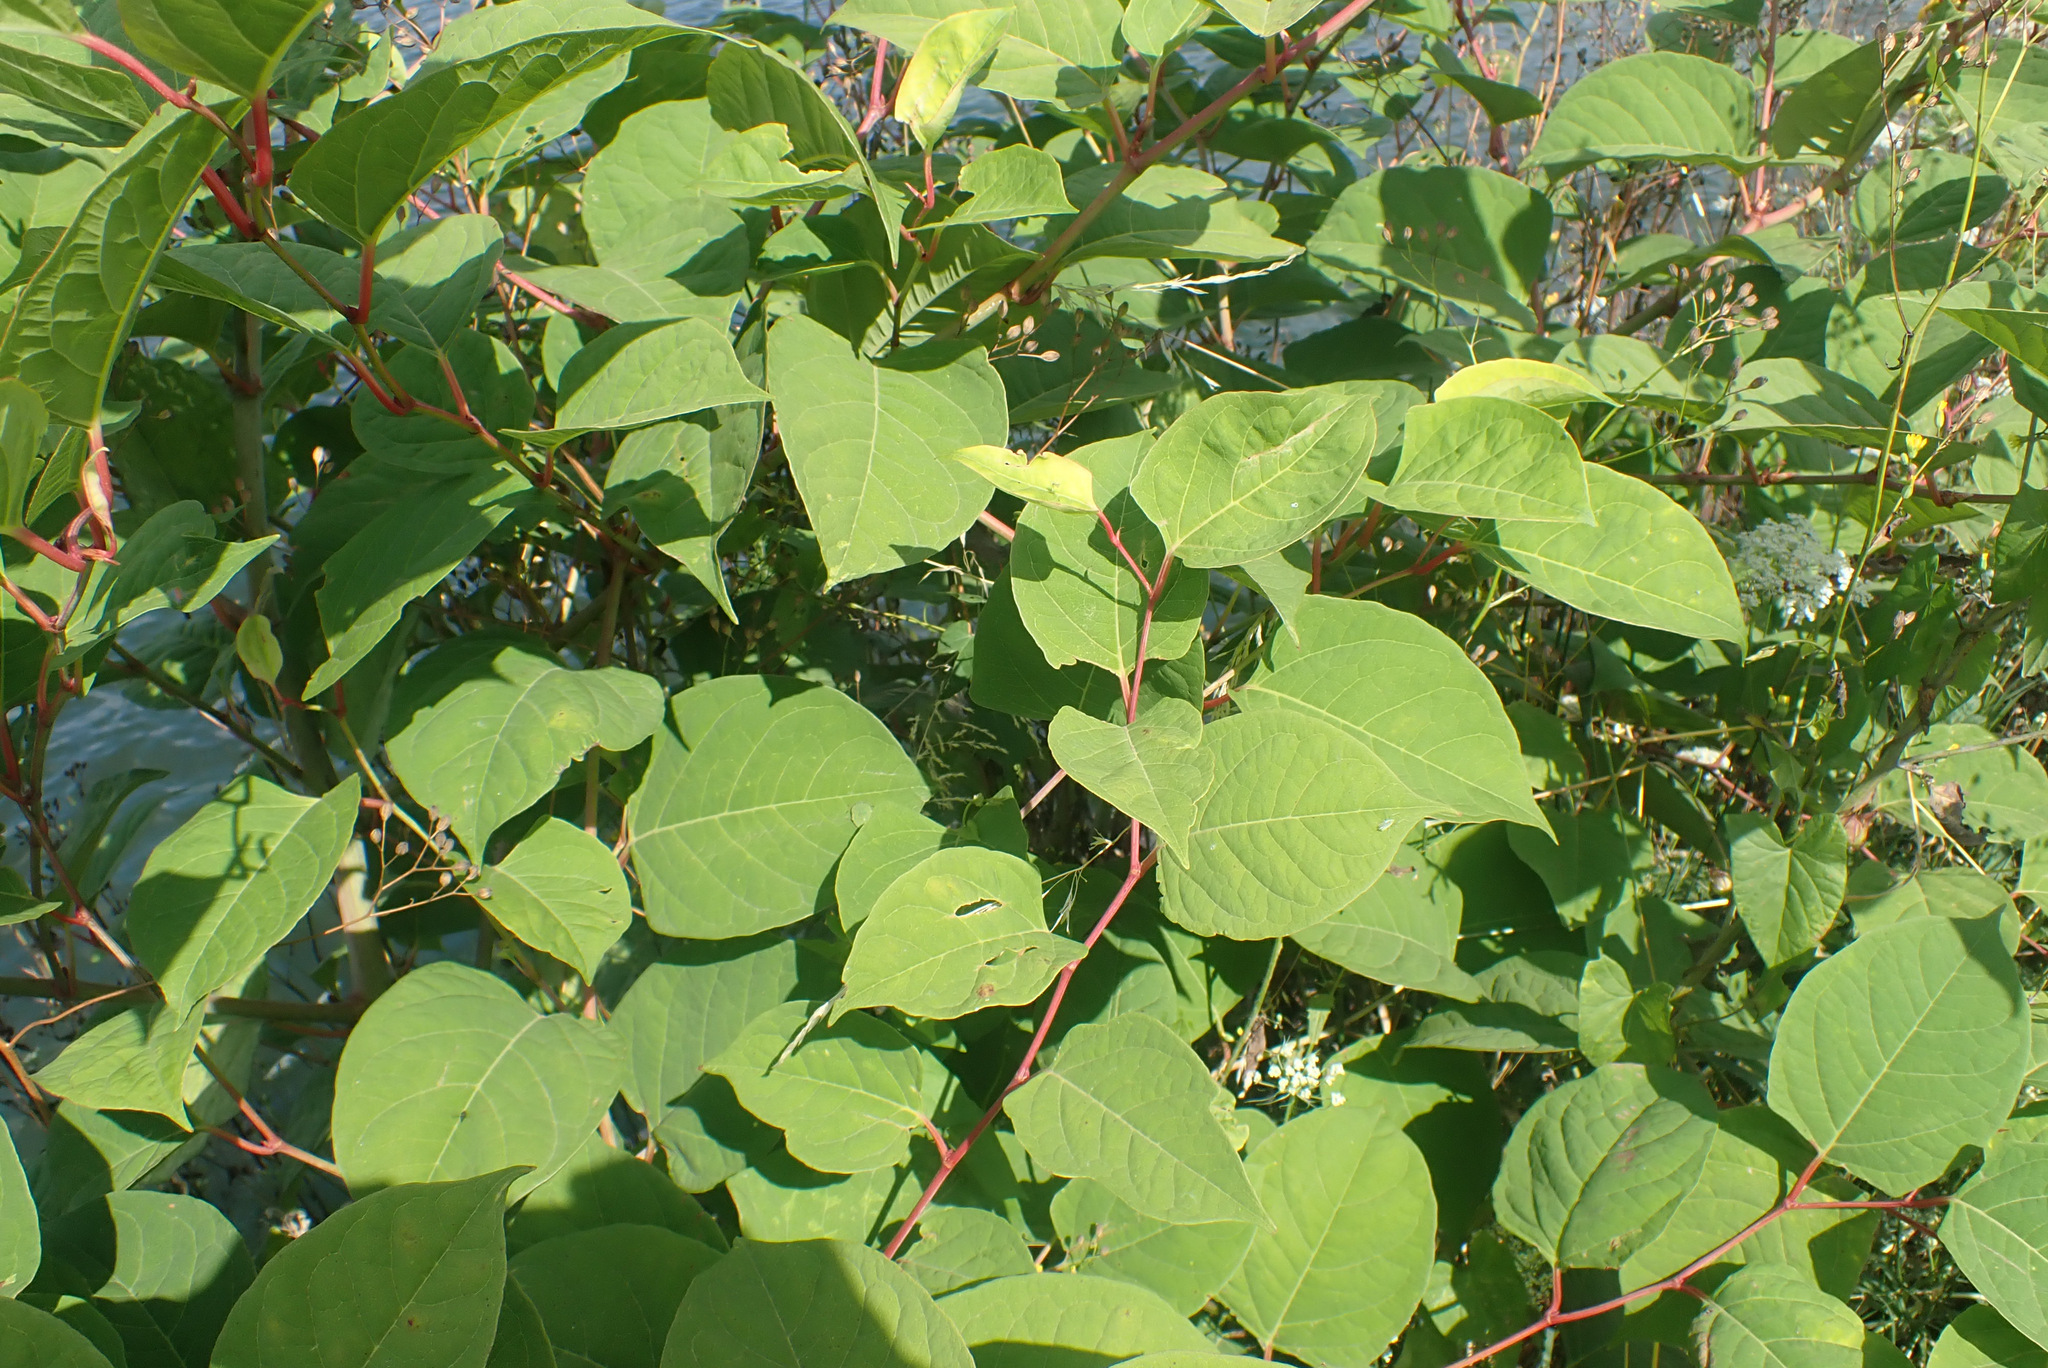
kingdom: Plantae
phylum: Tracheophyta
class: Magnoliopsida
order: Caryophyllales
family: Polygonaceae
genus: Reynoutria
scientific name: Reynoutria japonica
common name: Japanese knotweed
